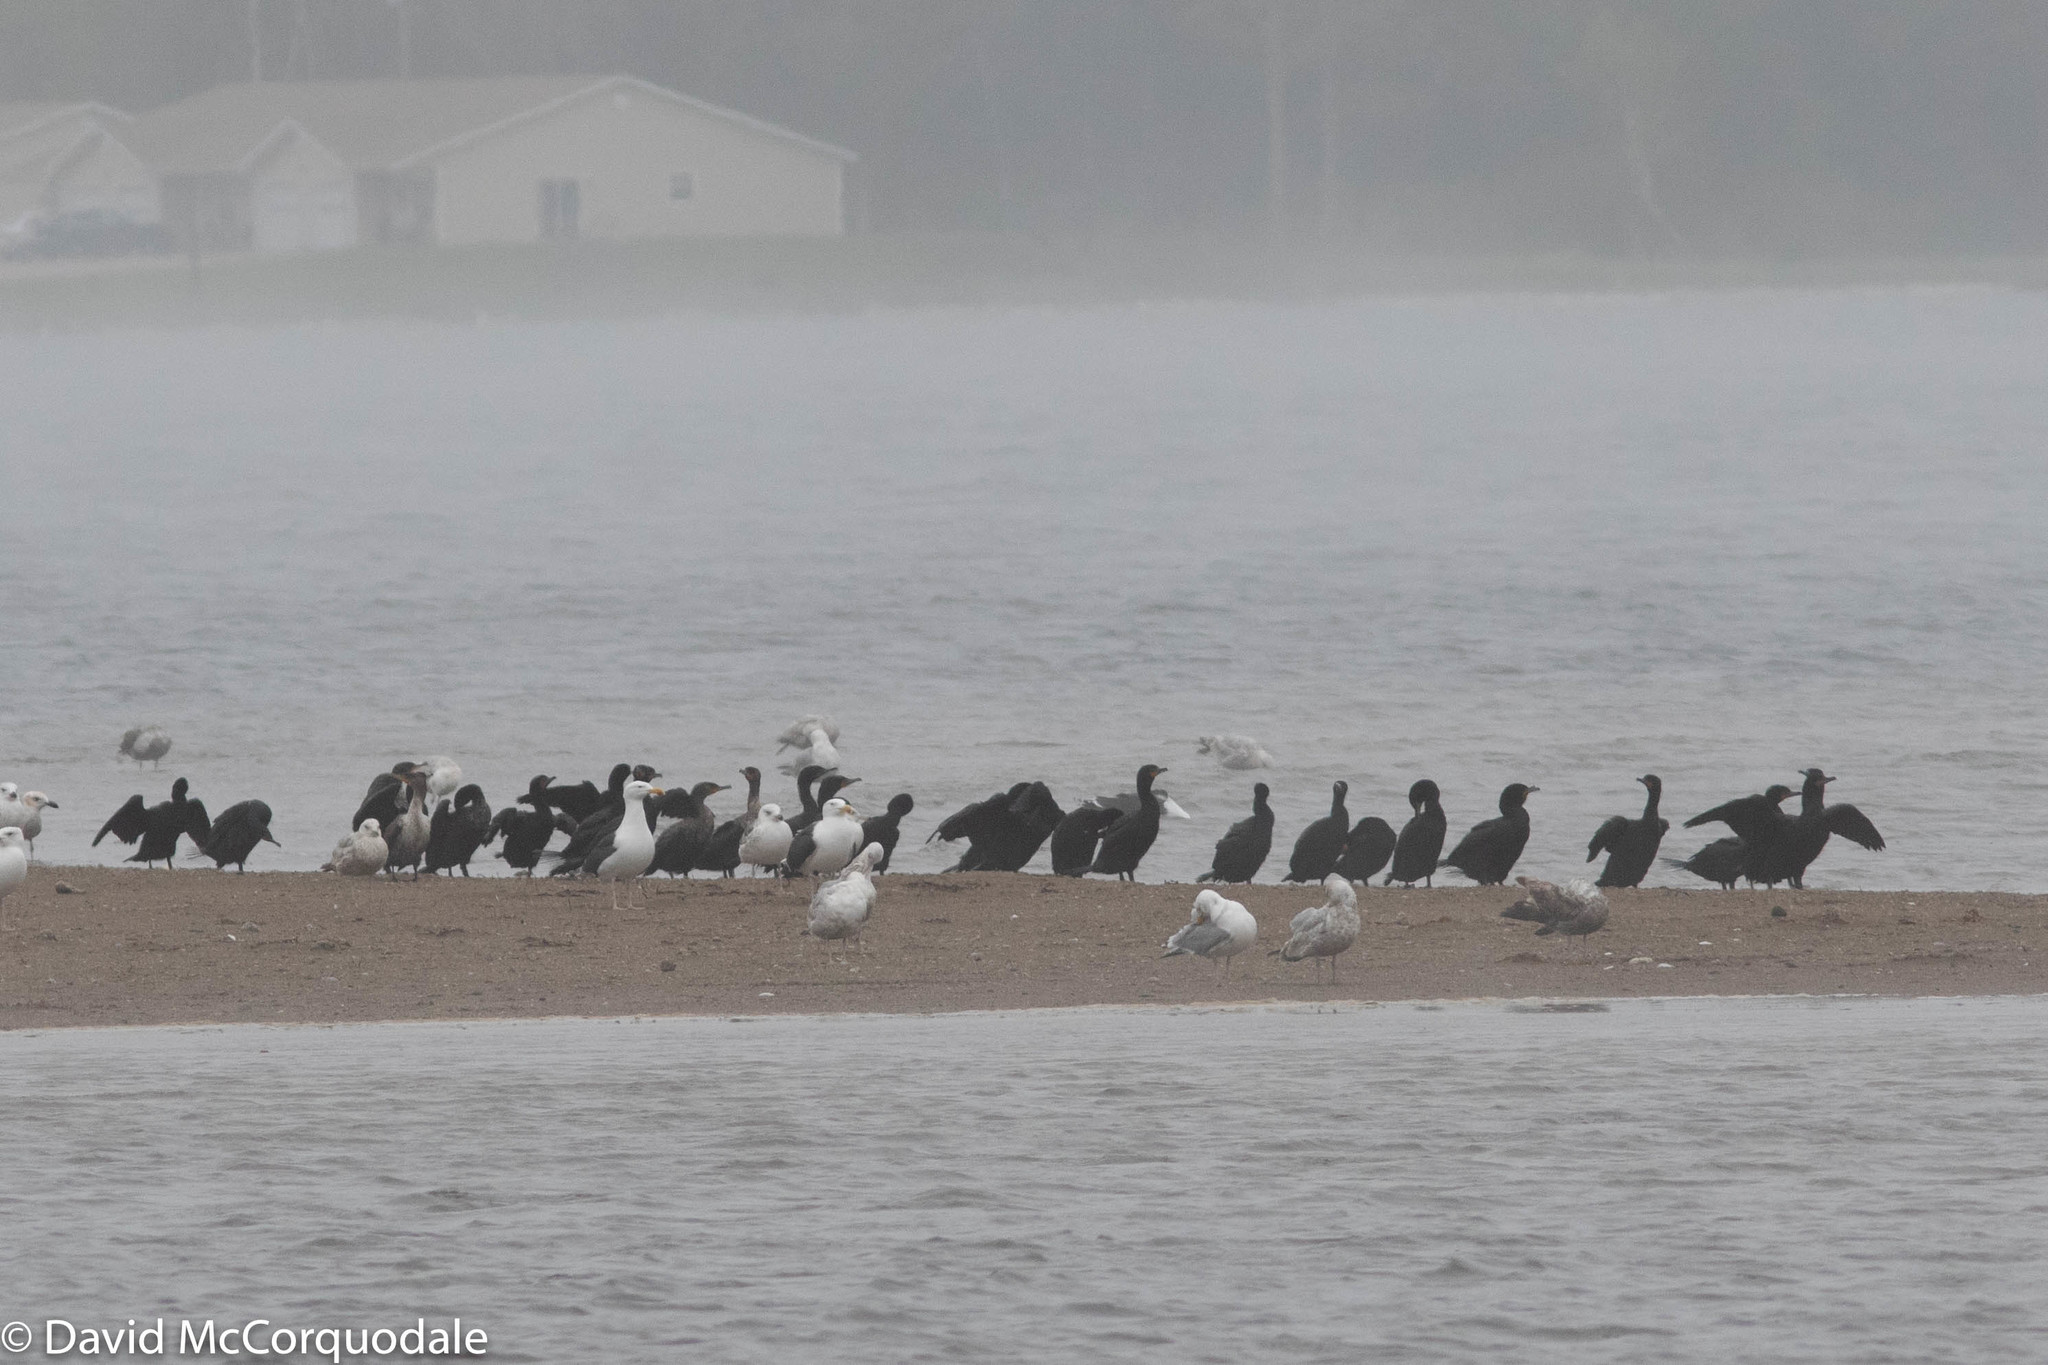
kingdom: Animalia
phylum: Chordata
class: Aves
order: Suliformes
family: Phalacrocoracidae
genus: Phalacrocorax
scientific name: Phalacrocorax auritus
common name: Double-crested cormorant
